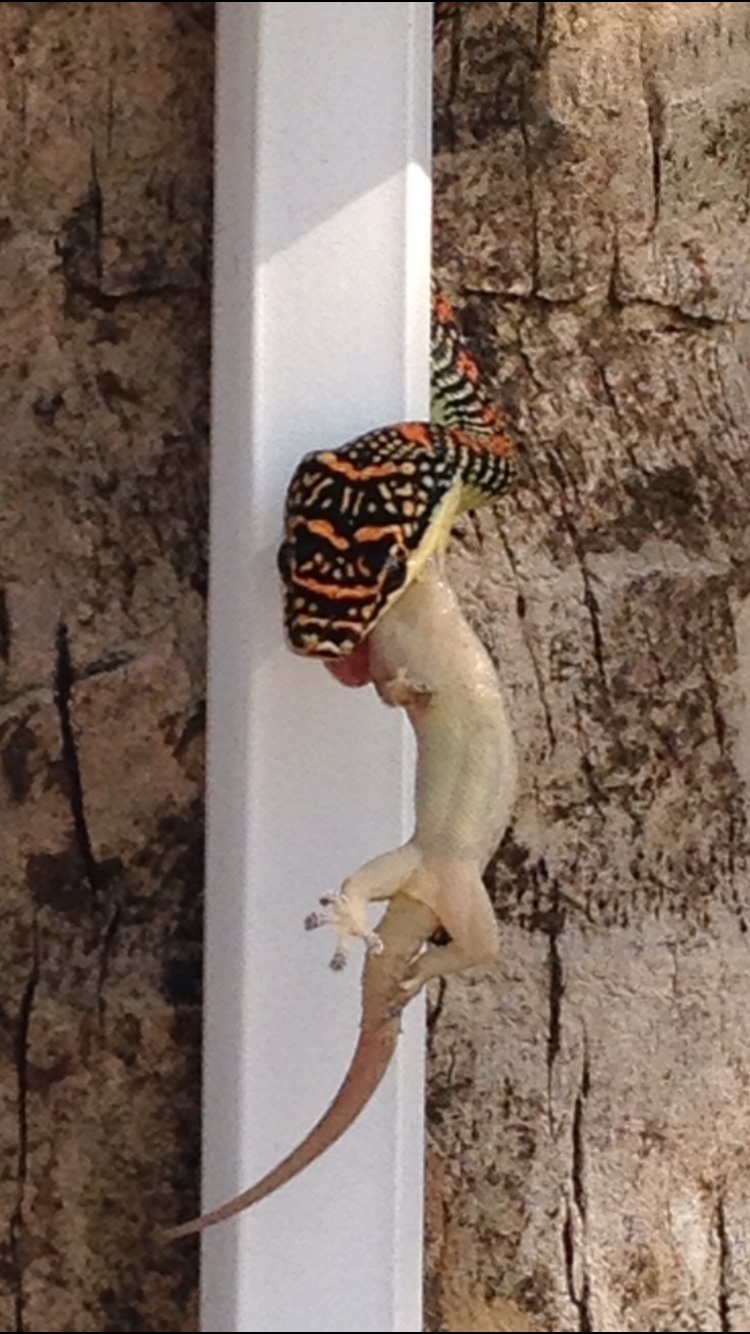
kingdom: Animalia
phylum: Chordata
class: Squamata
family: Colubridae
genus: Chrysopelea
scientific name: Chrysopelea paradisi
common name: Paradise tree snake
